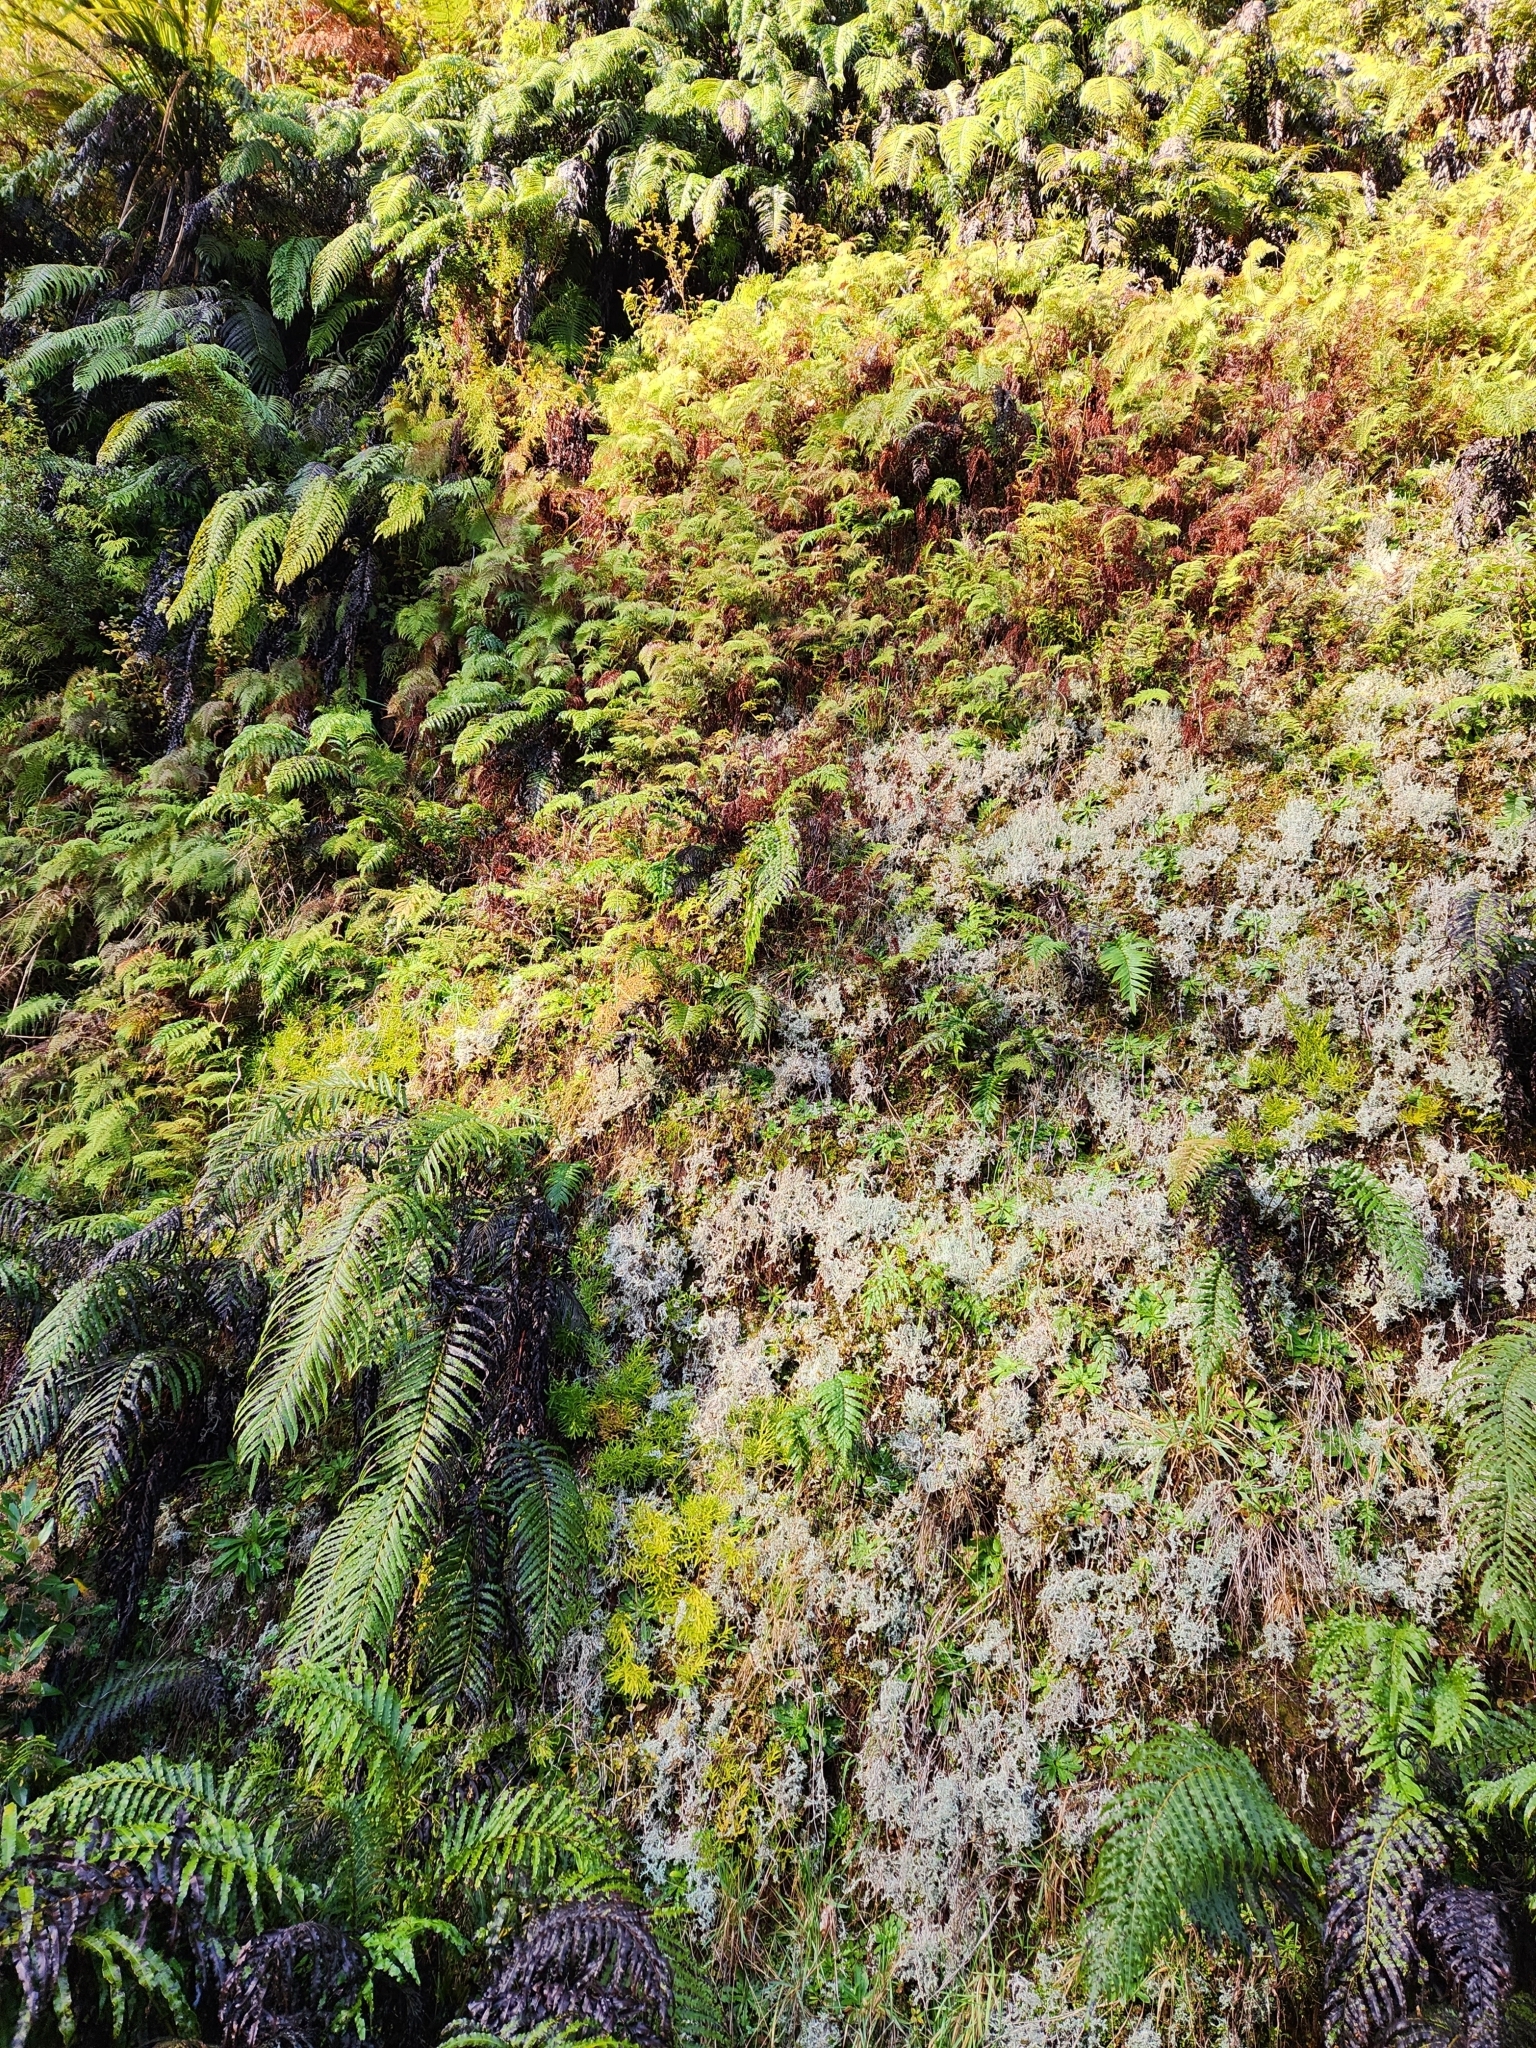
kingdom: Plantae
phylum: Tracheophyta
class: Lycopodiopsida
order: Lycopodiales
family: Lycopodiaceae
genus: Diphasium
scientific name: Diphasium scariosum
